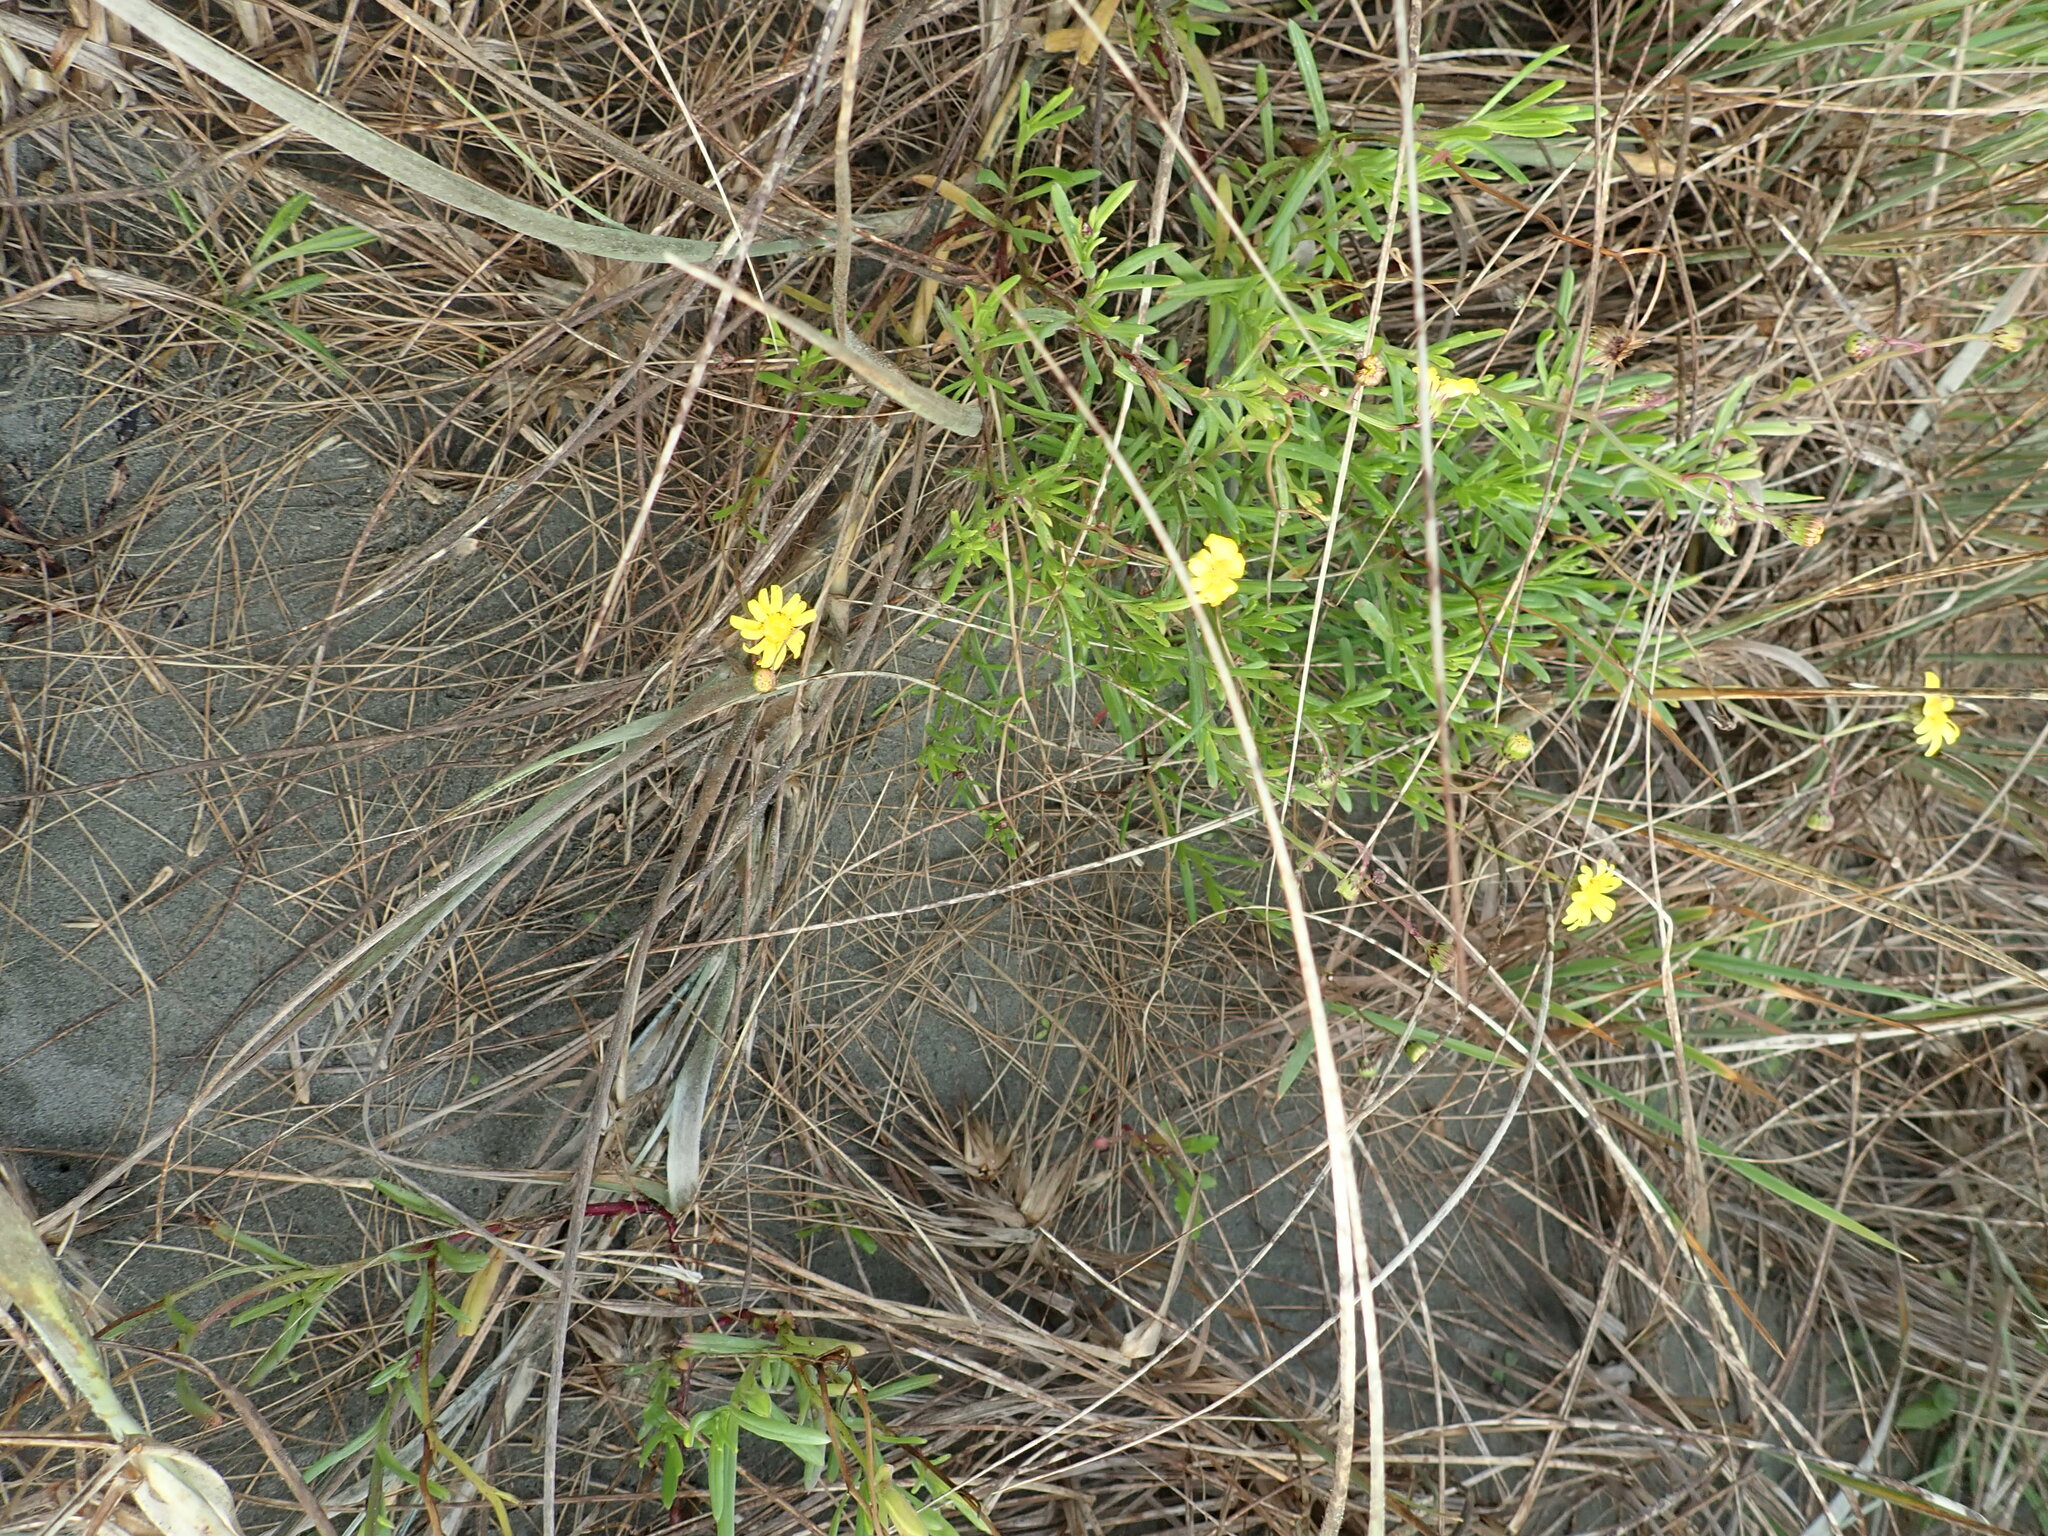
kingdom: Plantae
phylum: Tracheophyta
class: Magnoliopsida
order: Asterales
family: Asteraceae
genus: Senecio
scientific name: Senecio skirrhodon
